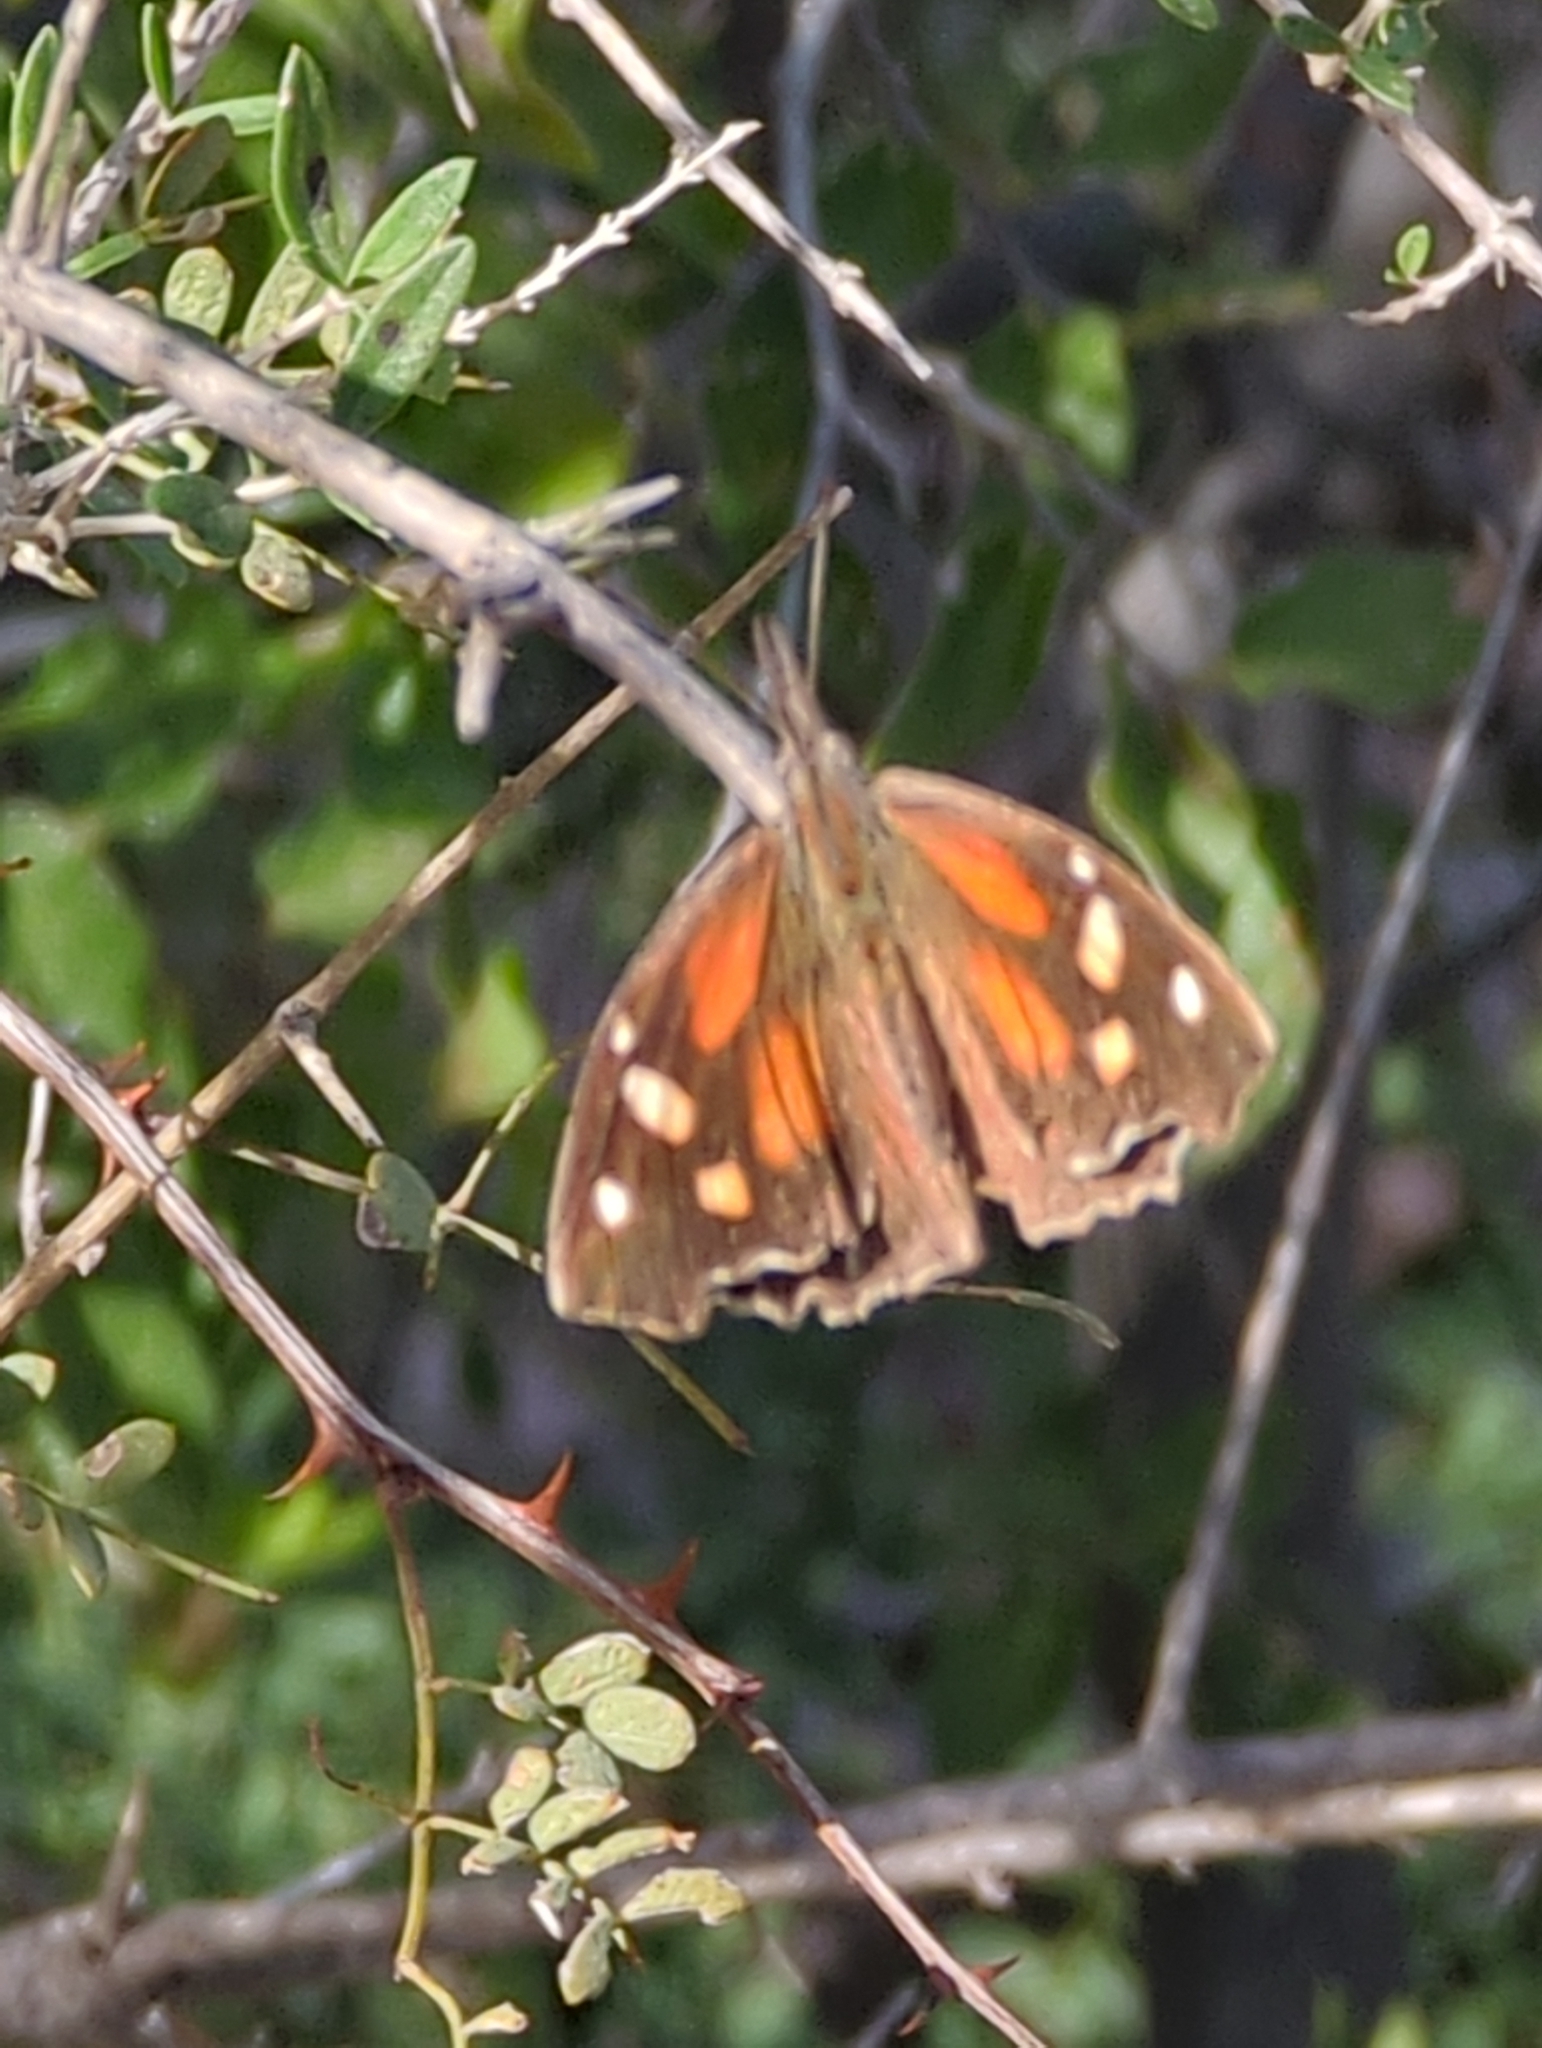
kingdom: Animalia
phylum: Arthropoda
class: Insecta
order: Lepidoptera
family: Nymphalidae
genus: Libytheana
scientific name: Libytheana carinenta
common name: American snout
